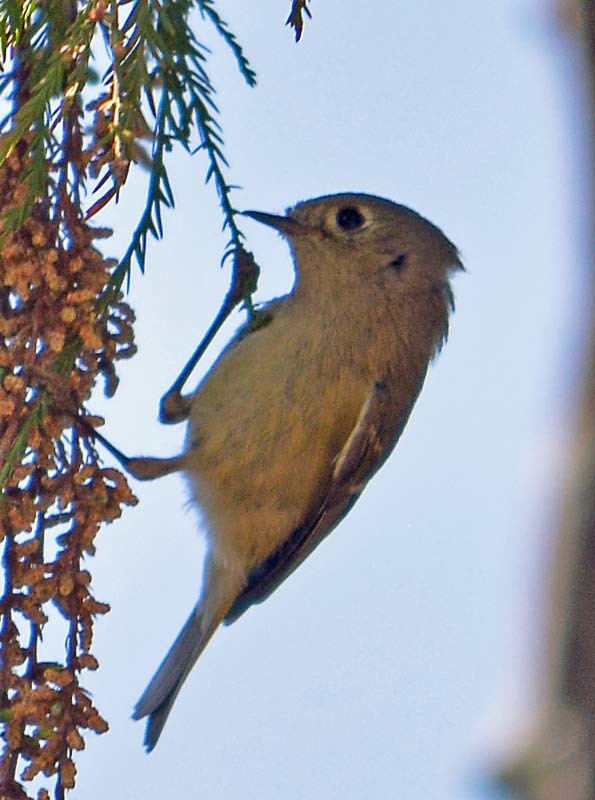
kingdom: Animalia
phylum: Chordata
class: Aves
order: Passeriformes
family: Regulidae
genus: Regulus
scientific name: Regulus calendula
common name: Ruby-crowned kinglet
